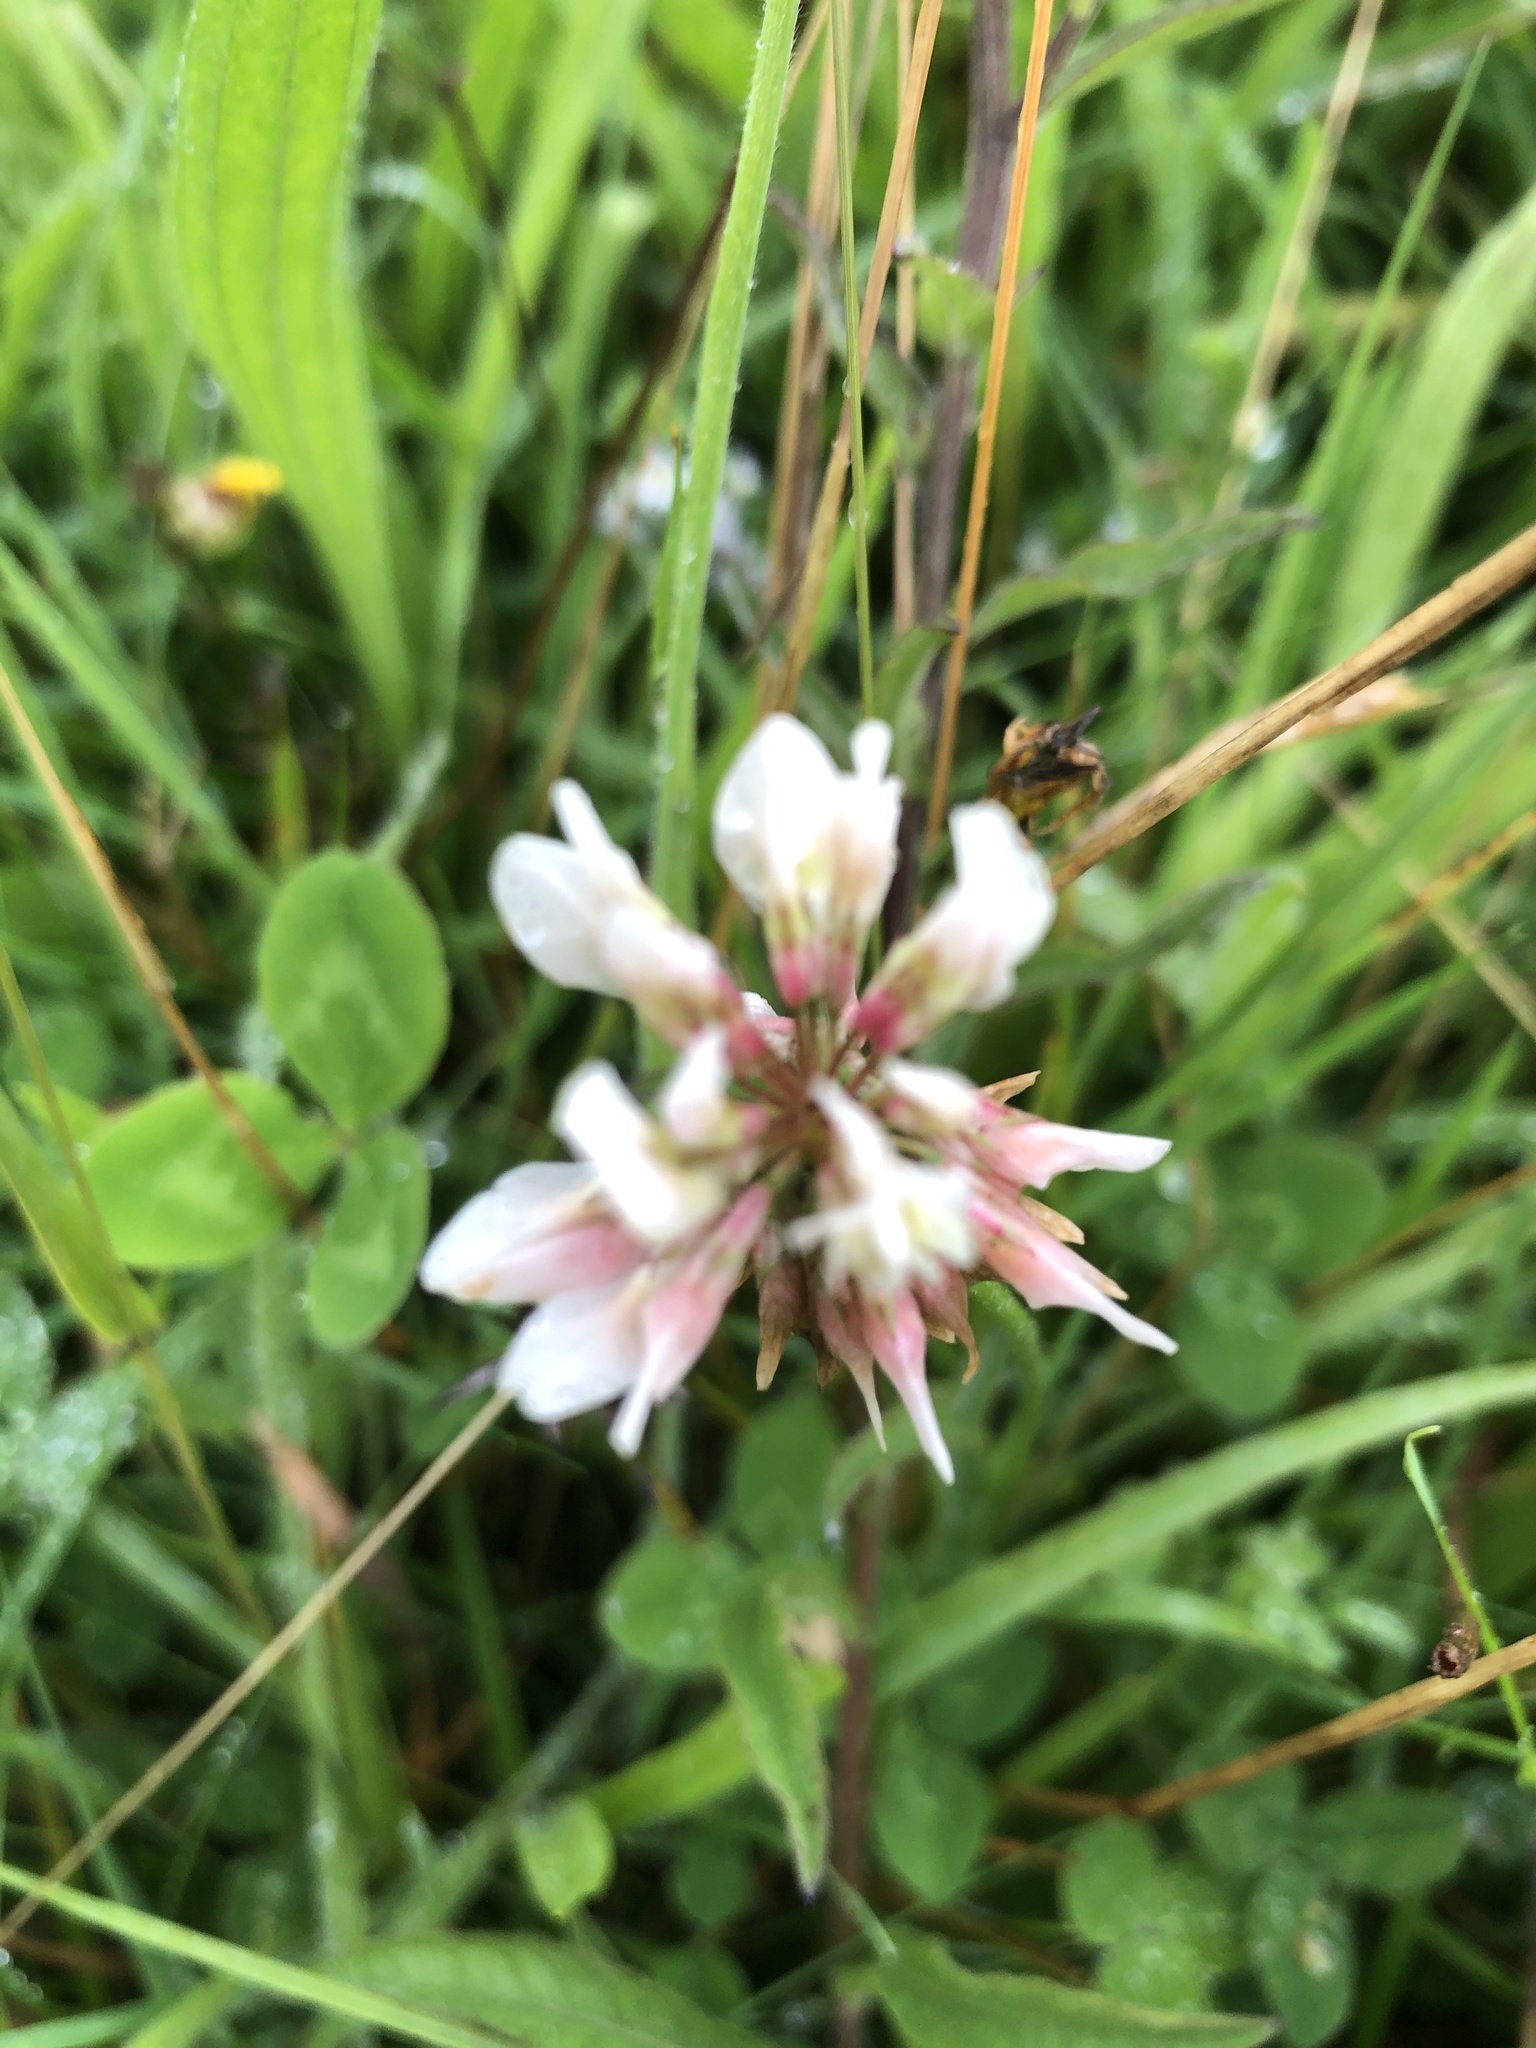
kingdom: Plantae
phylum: Tracheophyta
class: Magnoliopsida
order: Fabales
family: Fabaceae
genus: Trifolium
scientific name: Trifolium repens
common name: White clover
